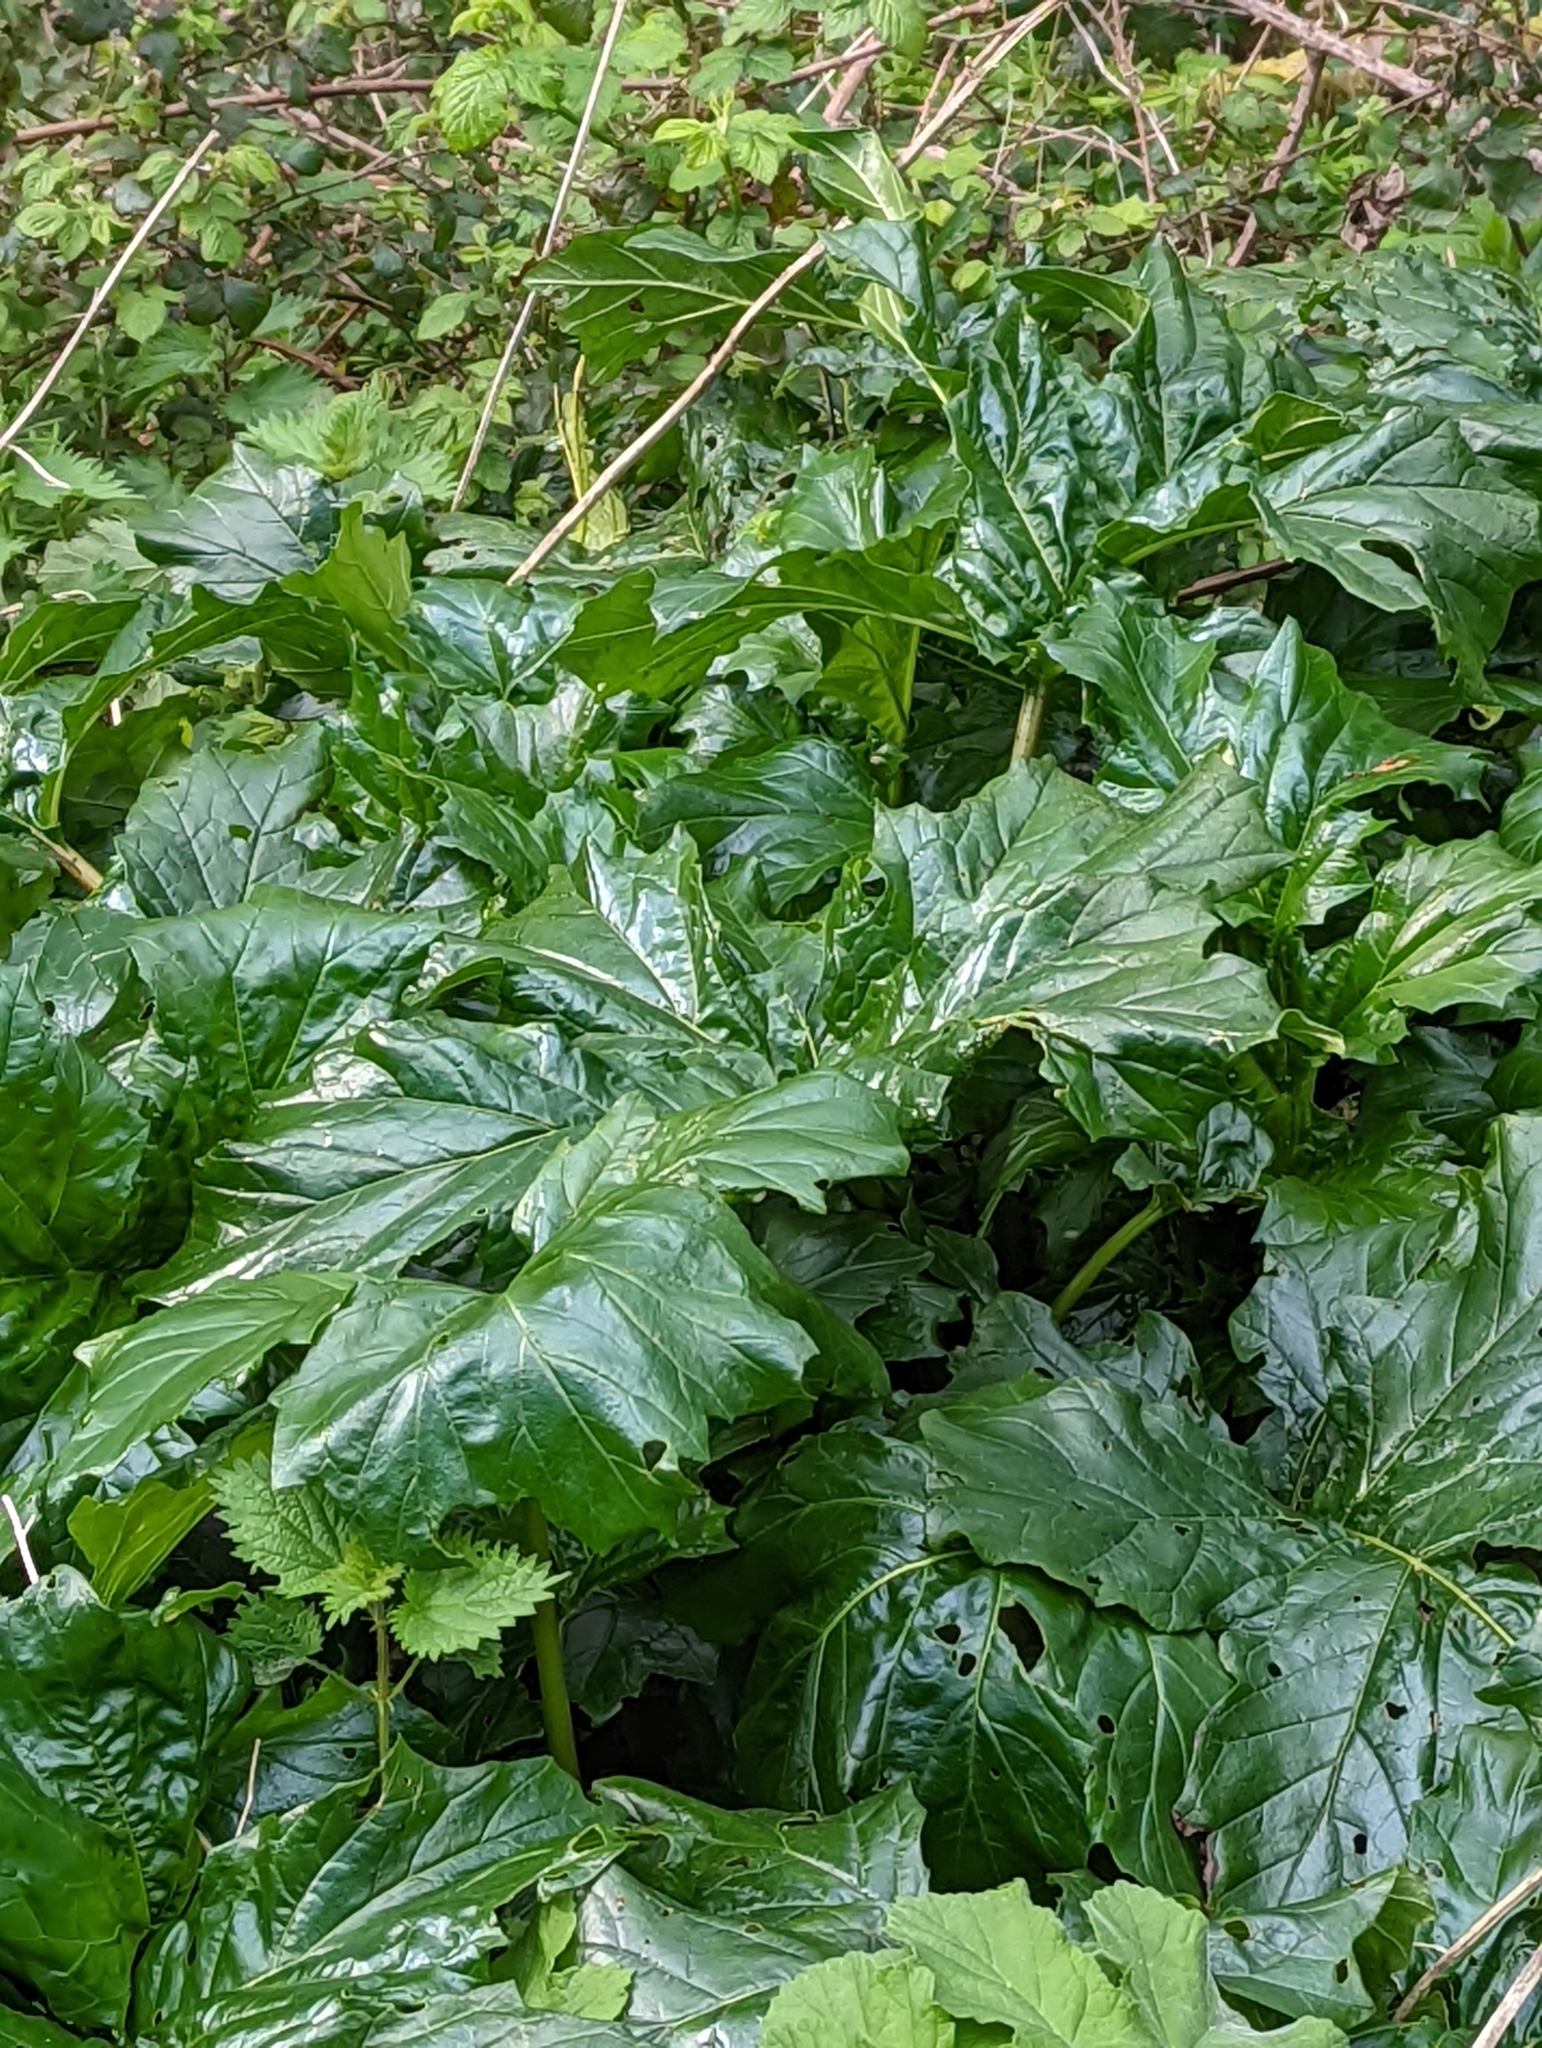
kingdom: Plantae
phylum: Tracheophyta
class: Magnoliopsida
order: Lamiales
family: Acanthaceae
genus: Acanthus
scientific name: Acanthus mollis
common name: Bear's-breech
